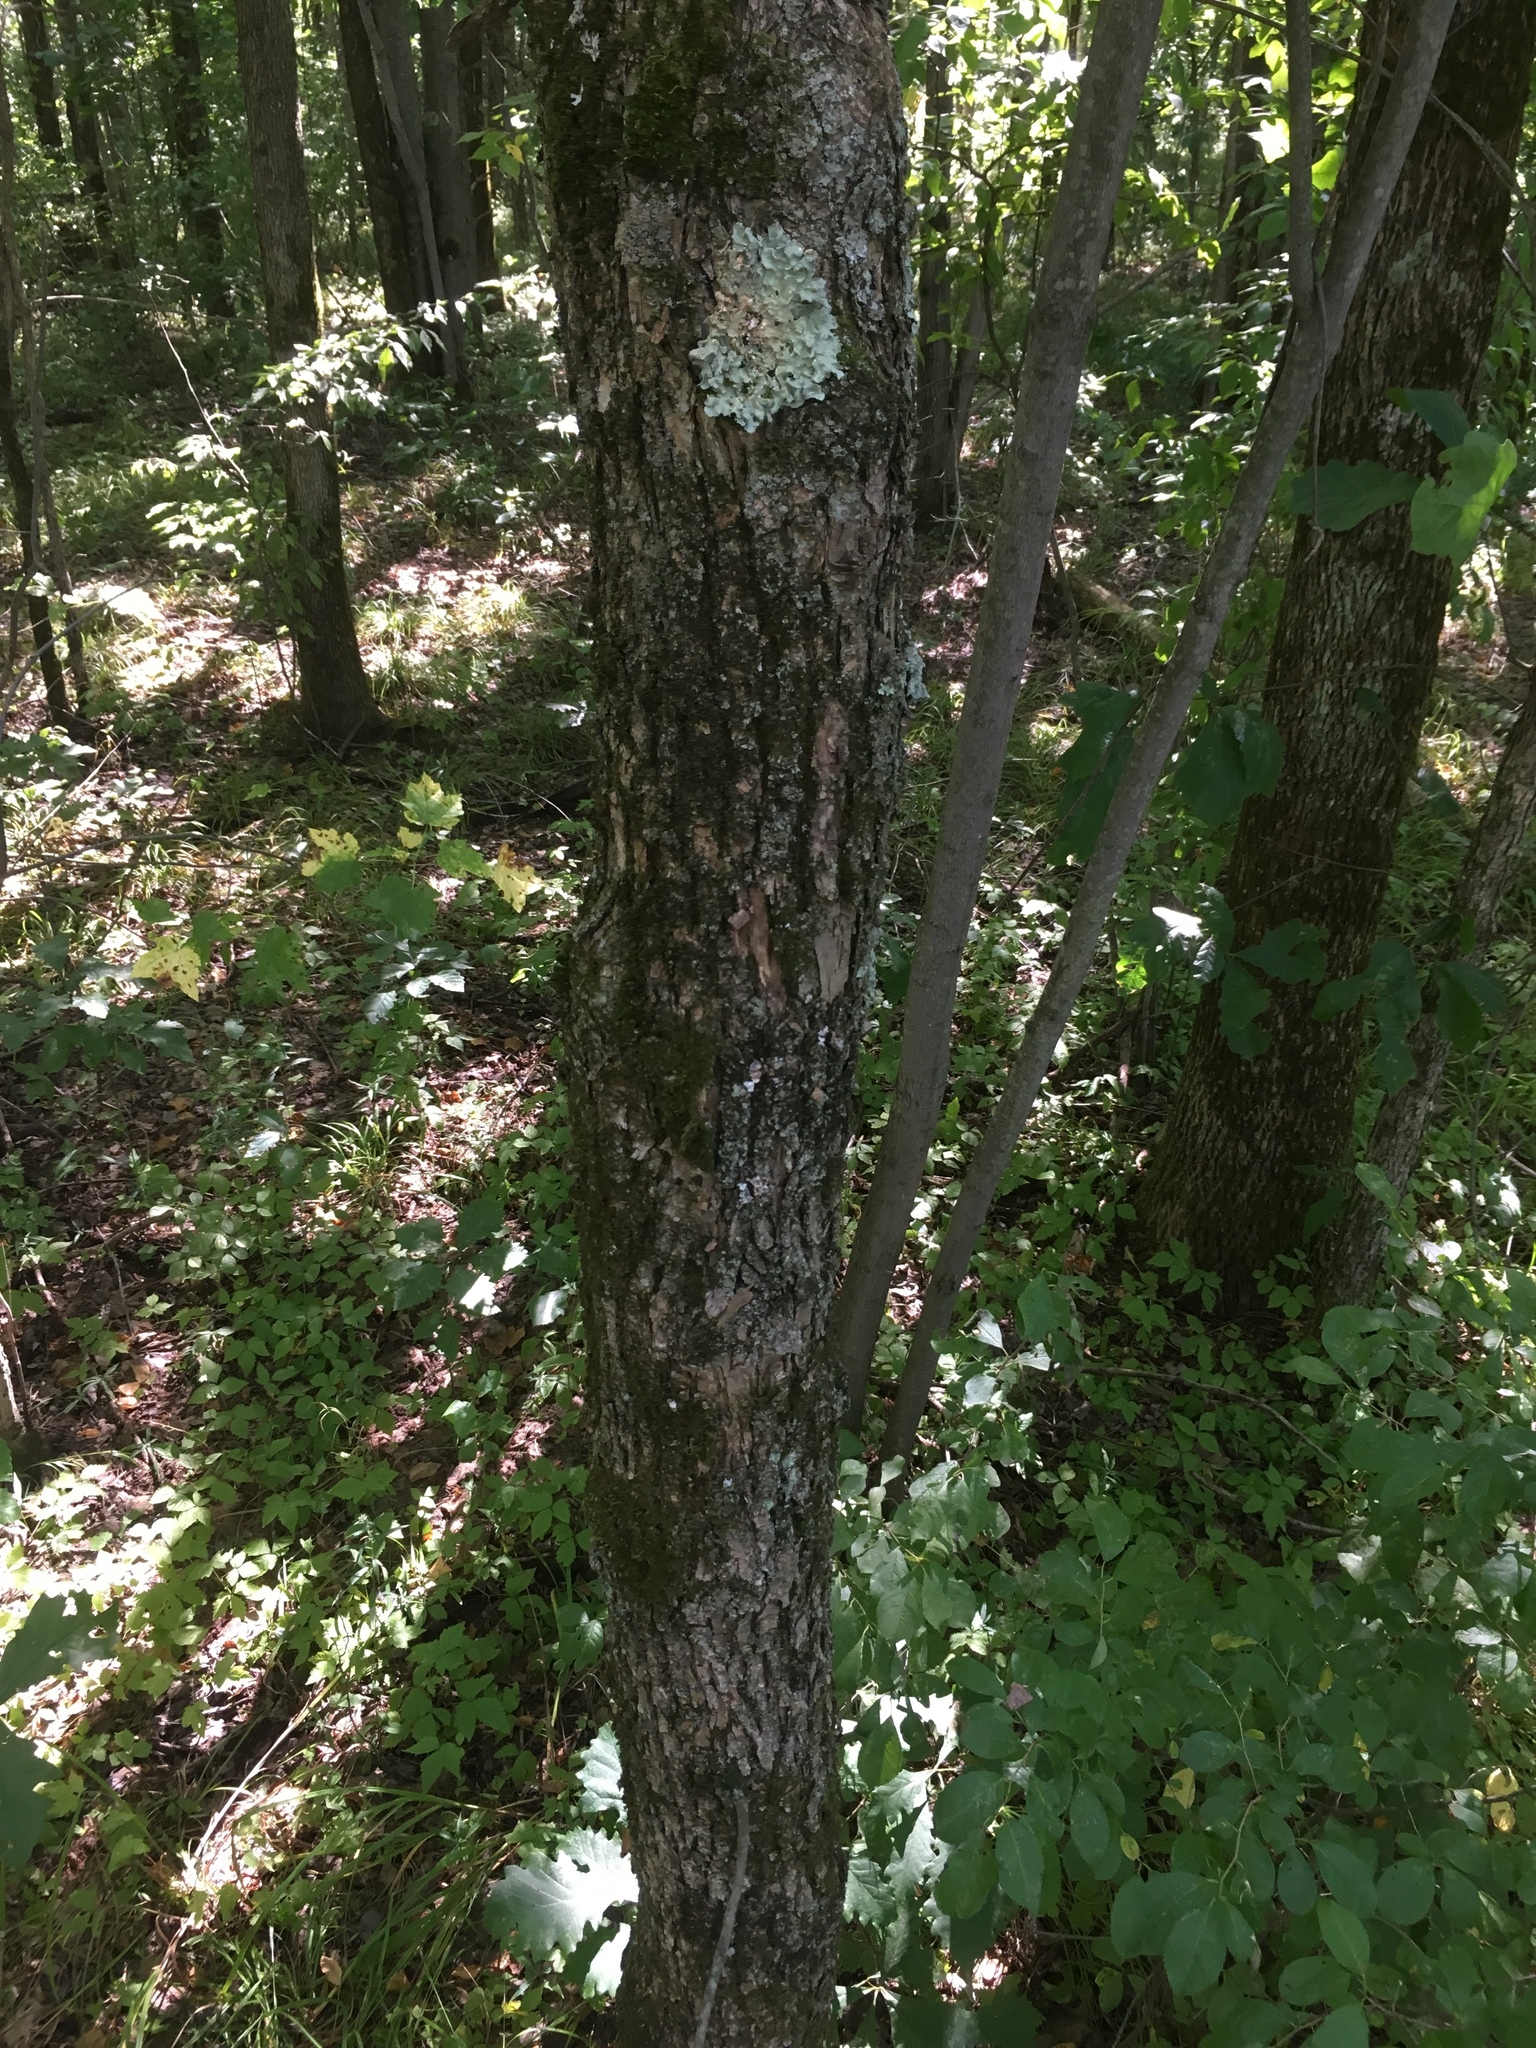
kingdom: Plantae
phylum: Tracheophyta
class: Magnoliopsida
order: Lamiales
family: Oleaceae
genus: Fraxinus
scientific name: Fraxinus pennsylvanica
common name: Green ash
